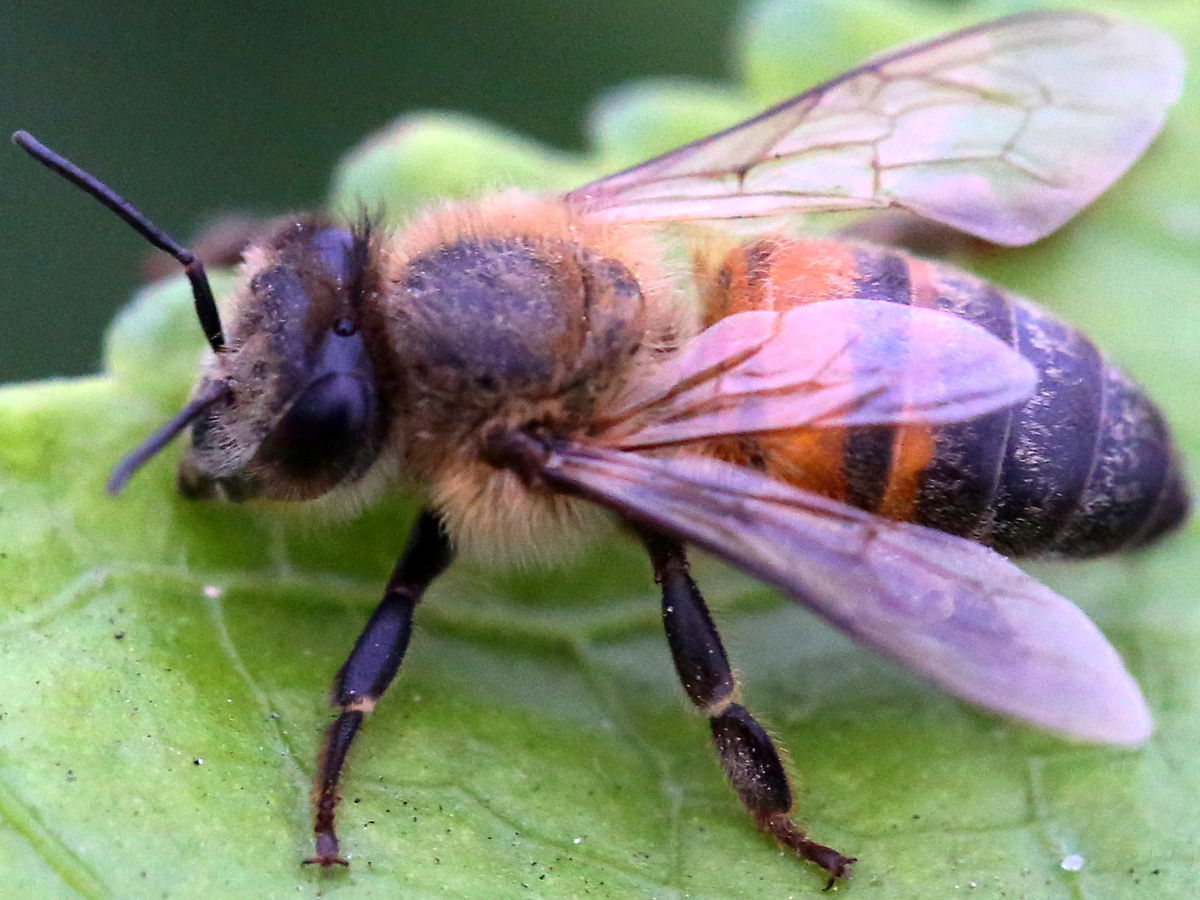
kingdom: Animalia
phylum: Arthropoda
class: Insecta
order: Hymenoptera
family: Apidae
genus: Apis
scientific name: Apis mellifera
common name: Honey bee
